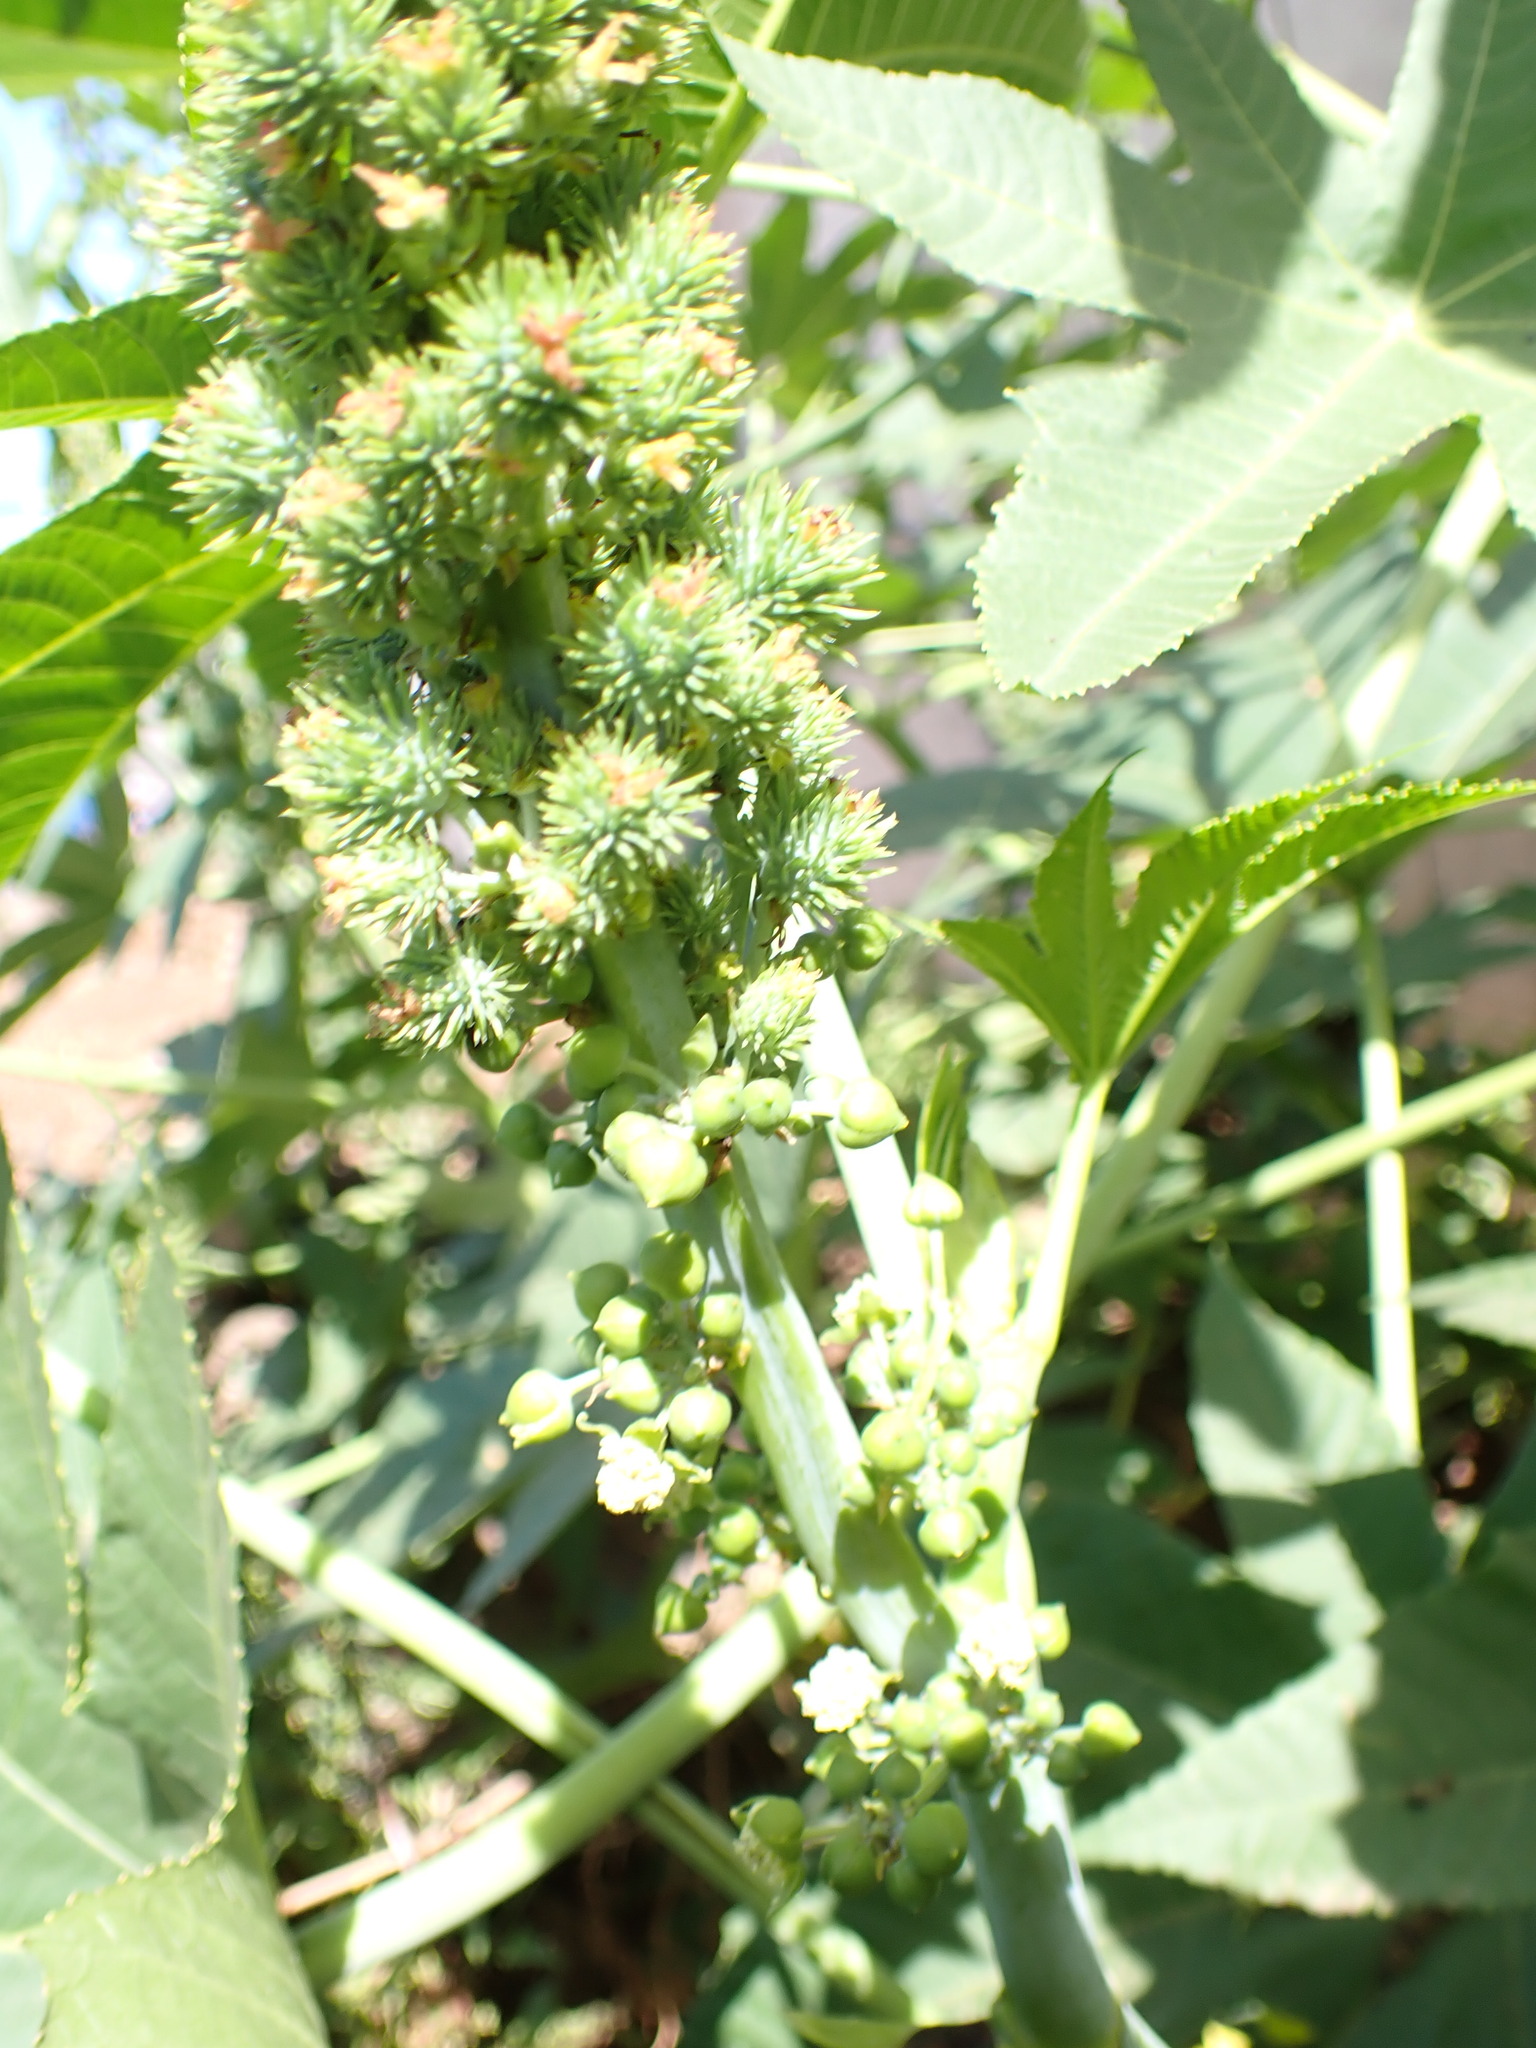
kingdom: Plantae
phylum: Tracheophyta
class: Magnoliopsida
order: Malpighiales
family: Euphorbiaceae
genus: Ricinus
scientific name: Ricinus communis
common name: Castor-oil-plant
